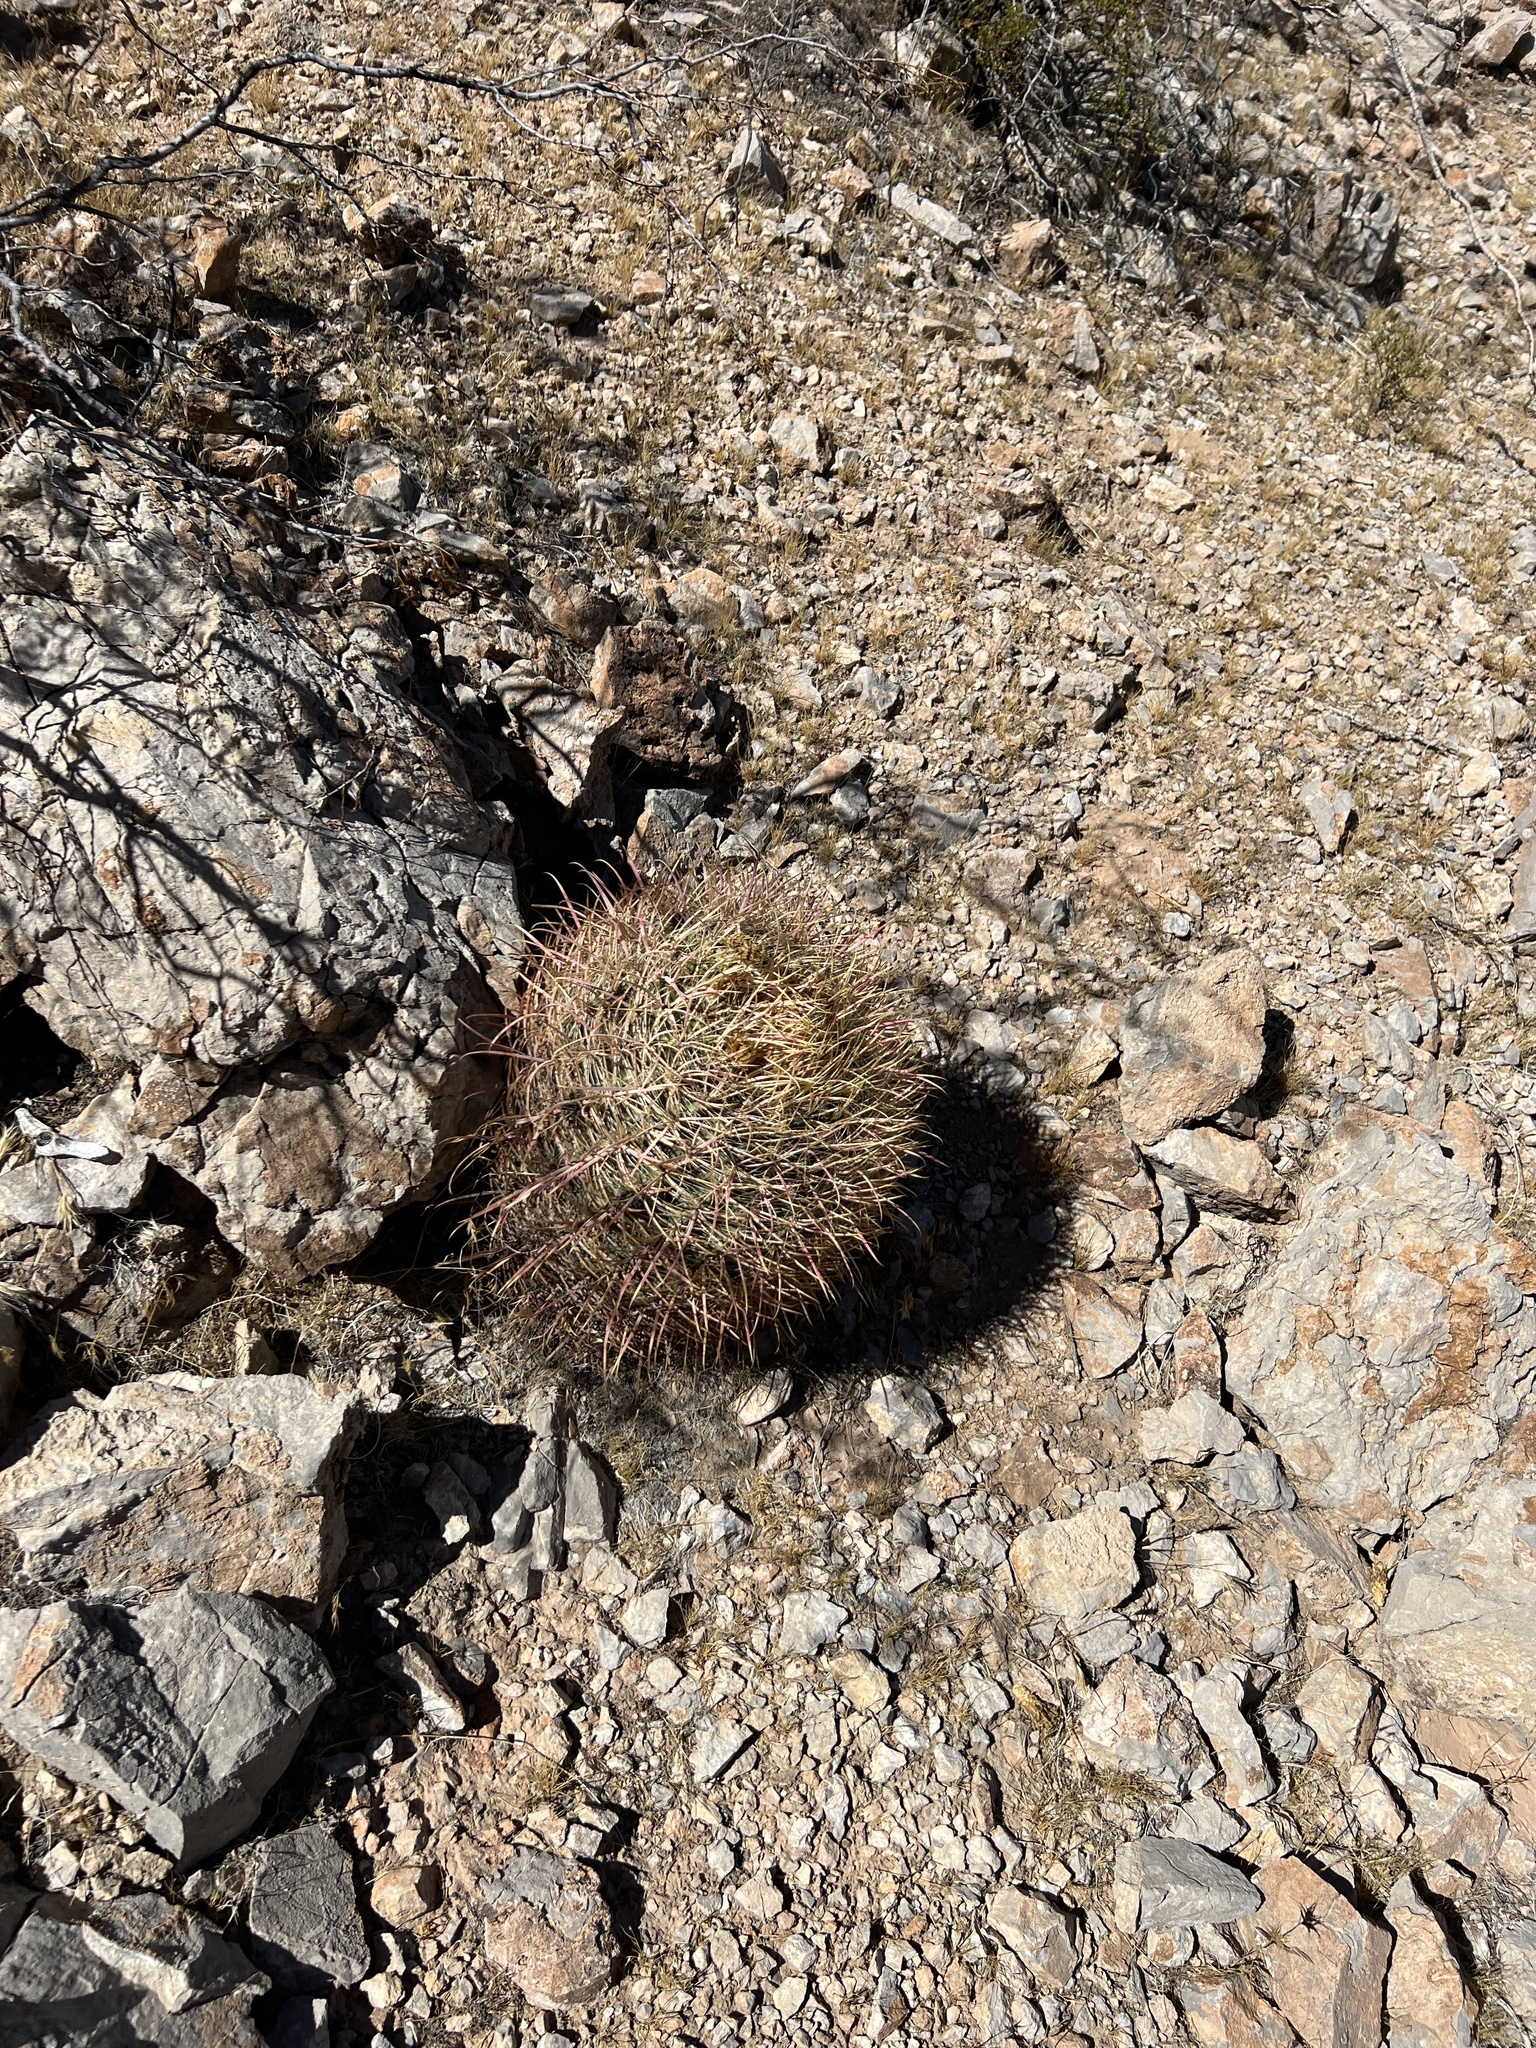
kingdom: Plantae
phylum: Tracheophyta
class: Magnoliopsida
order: Caryophyllales
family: Cactaceae
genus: Ferocactus
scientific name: Ferocactus cylindraceus
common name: California barrel cactus
